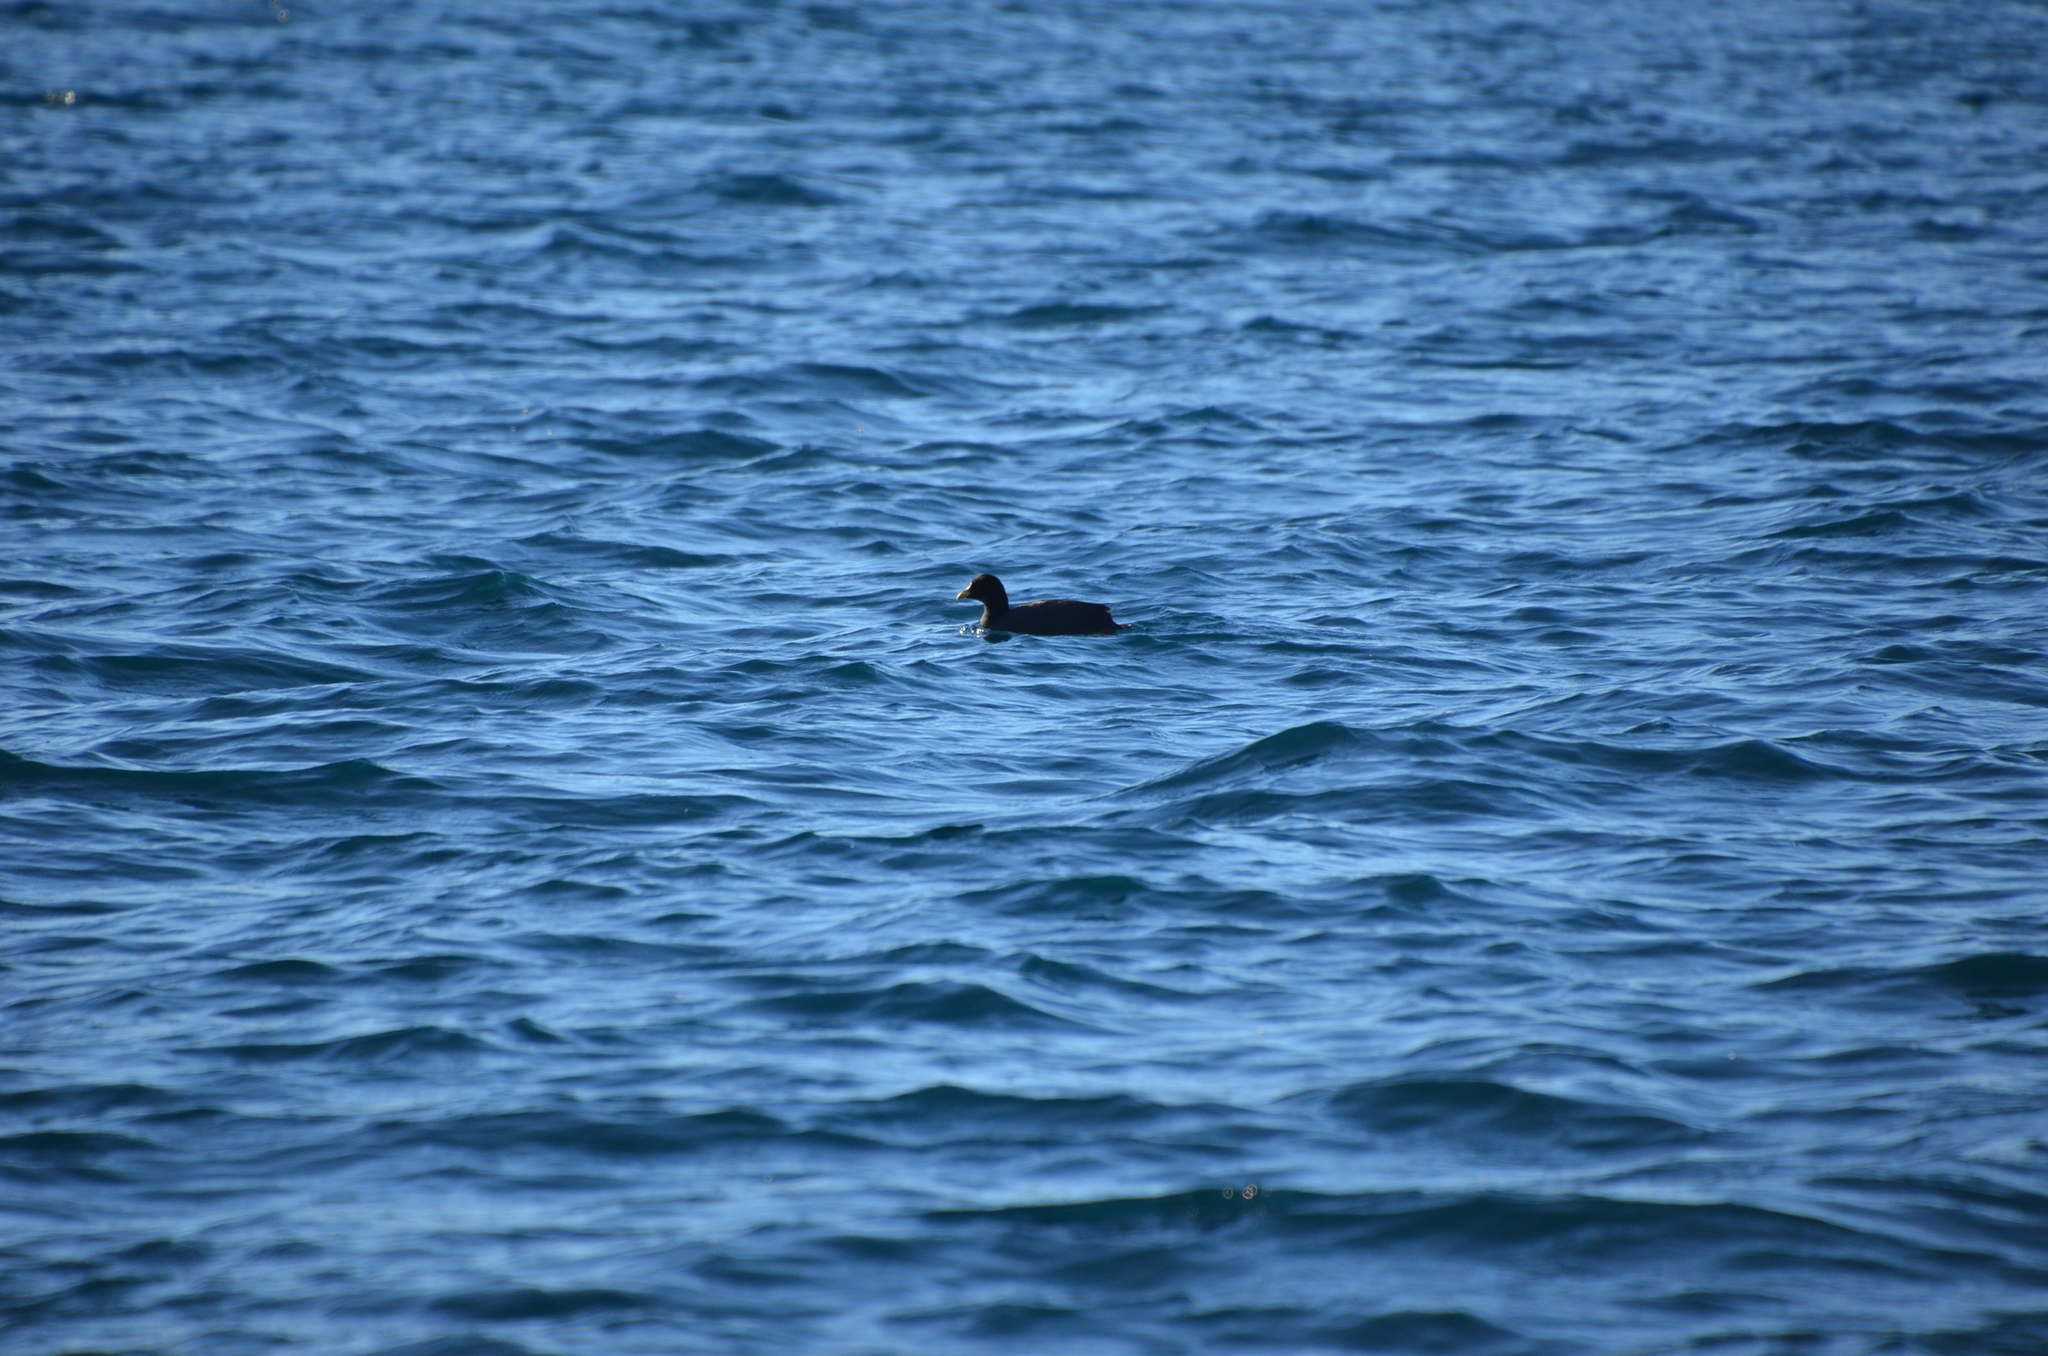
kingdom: Animalia
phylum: Chordata
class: Aves
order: Gruiformes
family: Rallidae
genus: Fulica
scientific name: Fulica leucoptera
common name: White-winged coot
